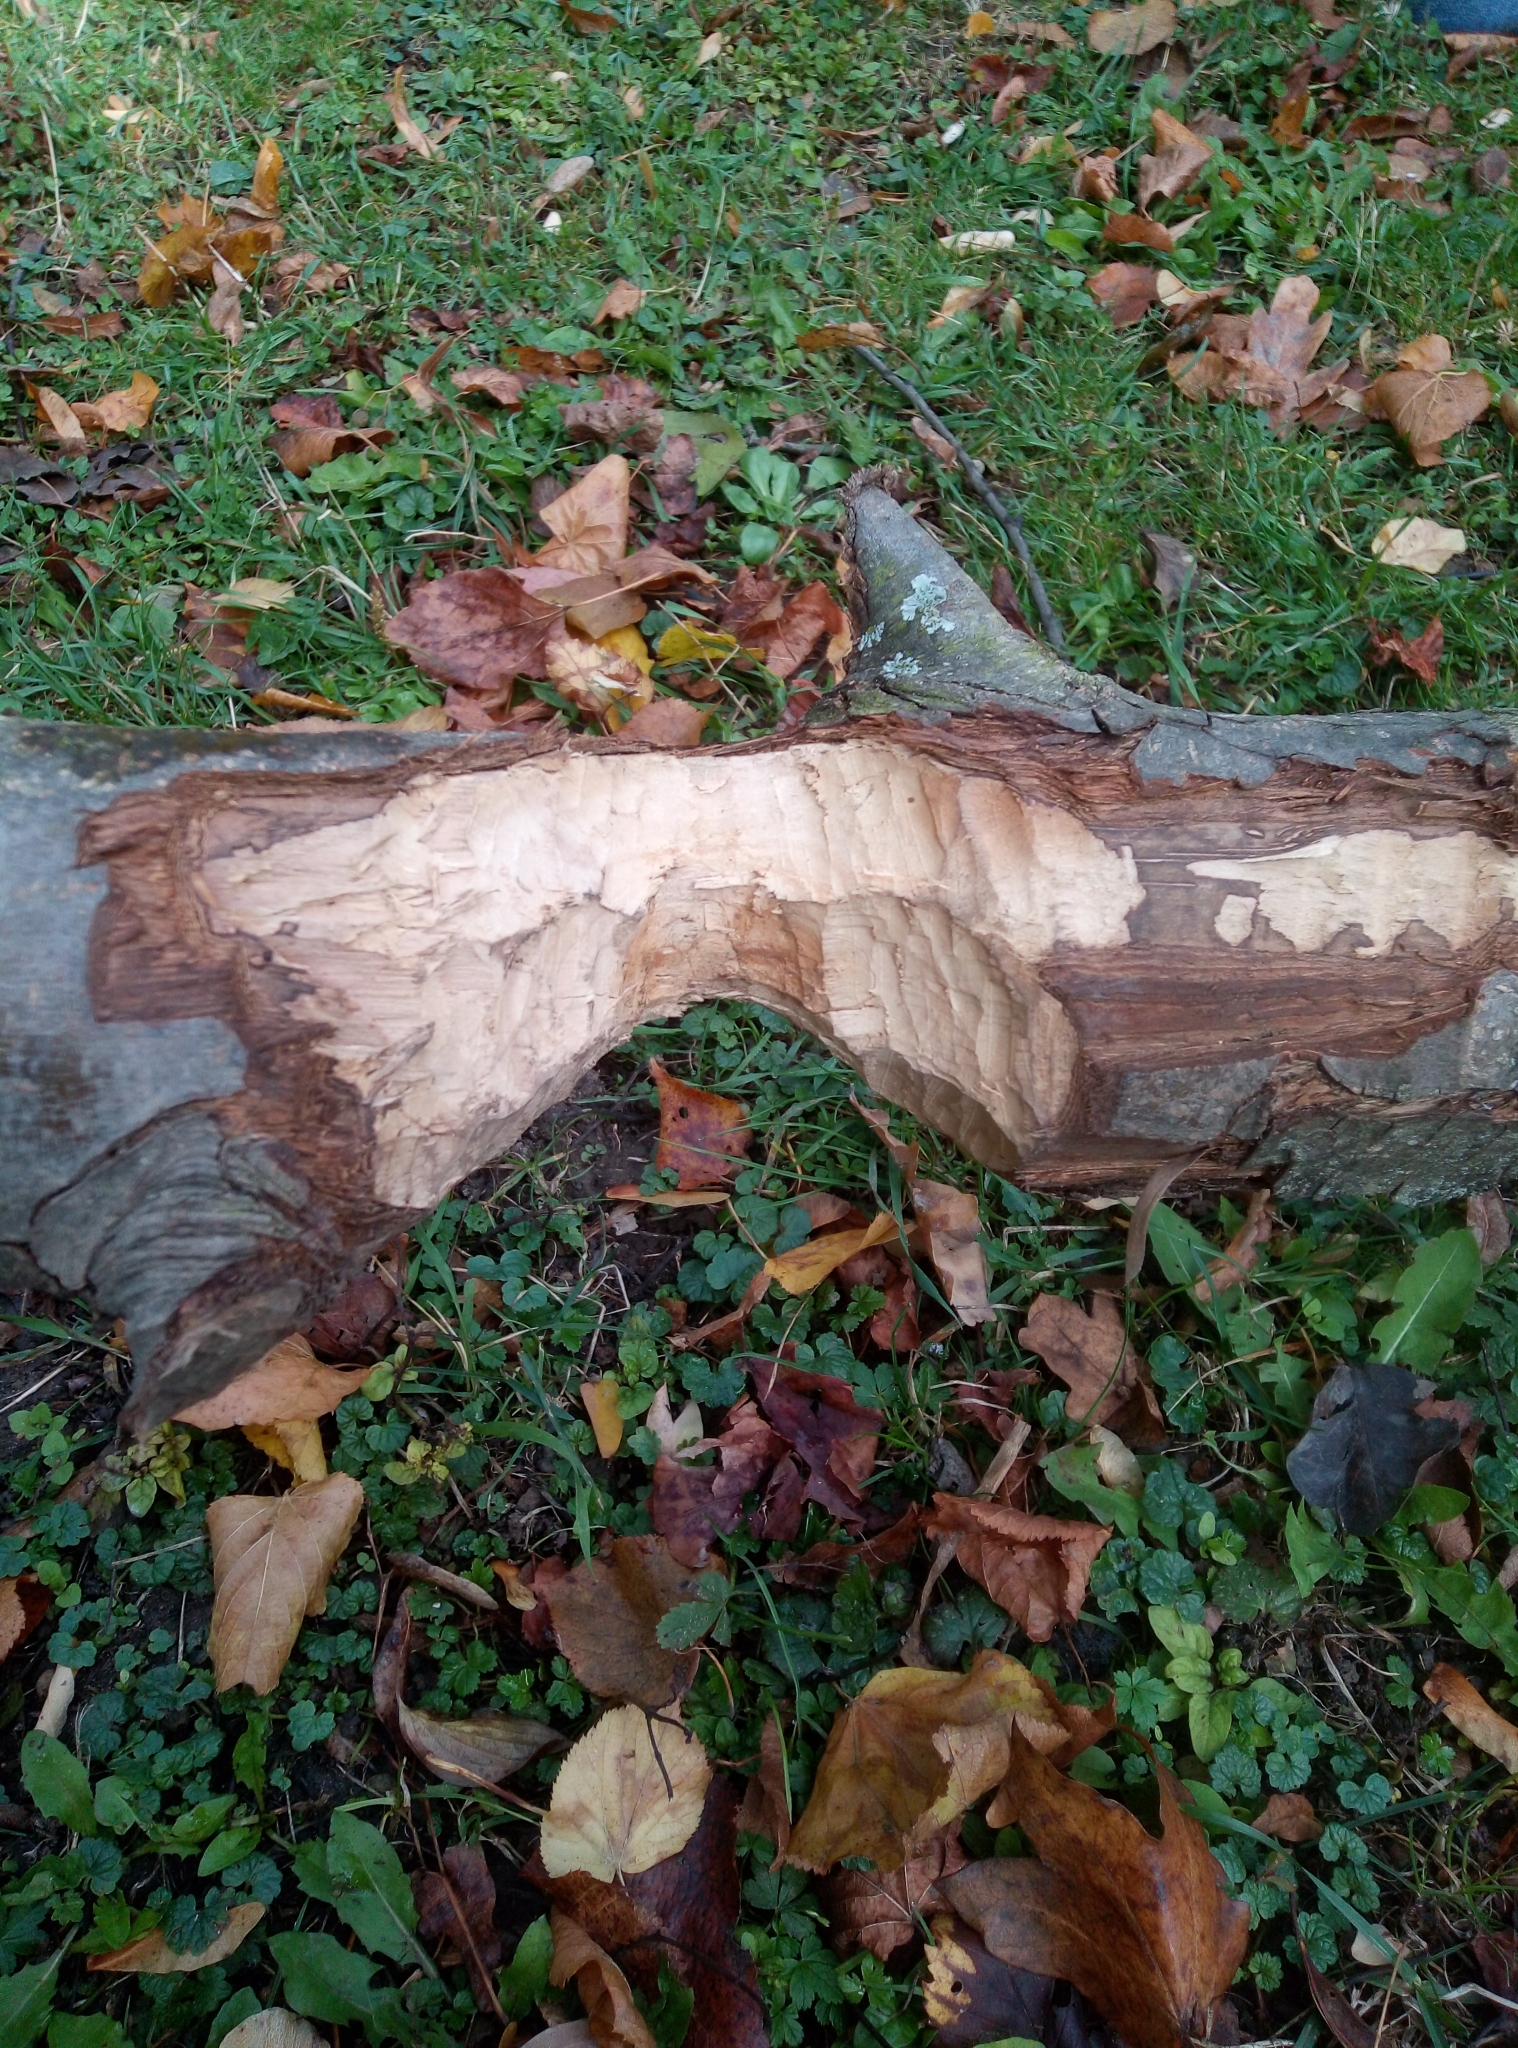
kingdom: Animalia
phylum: Chordata
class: Mammalia
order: Rodentia
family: Castoridae
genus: Castor
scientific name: Castor fiber
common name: Eurasian beaver
